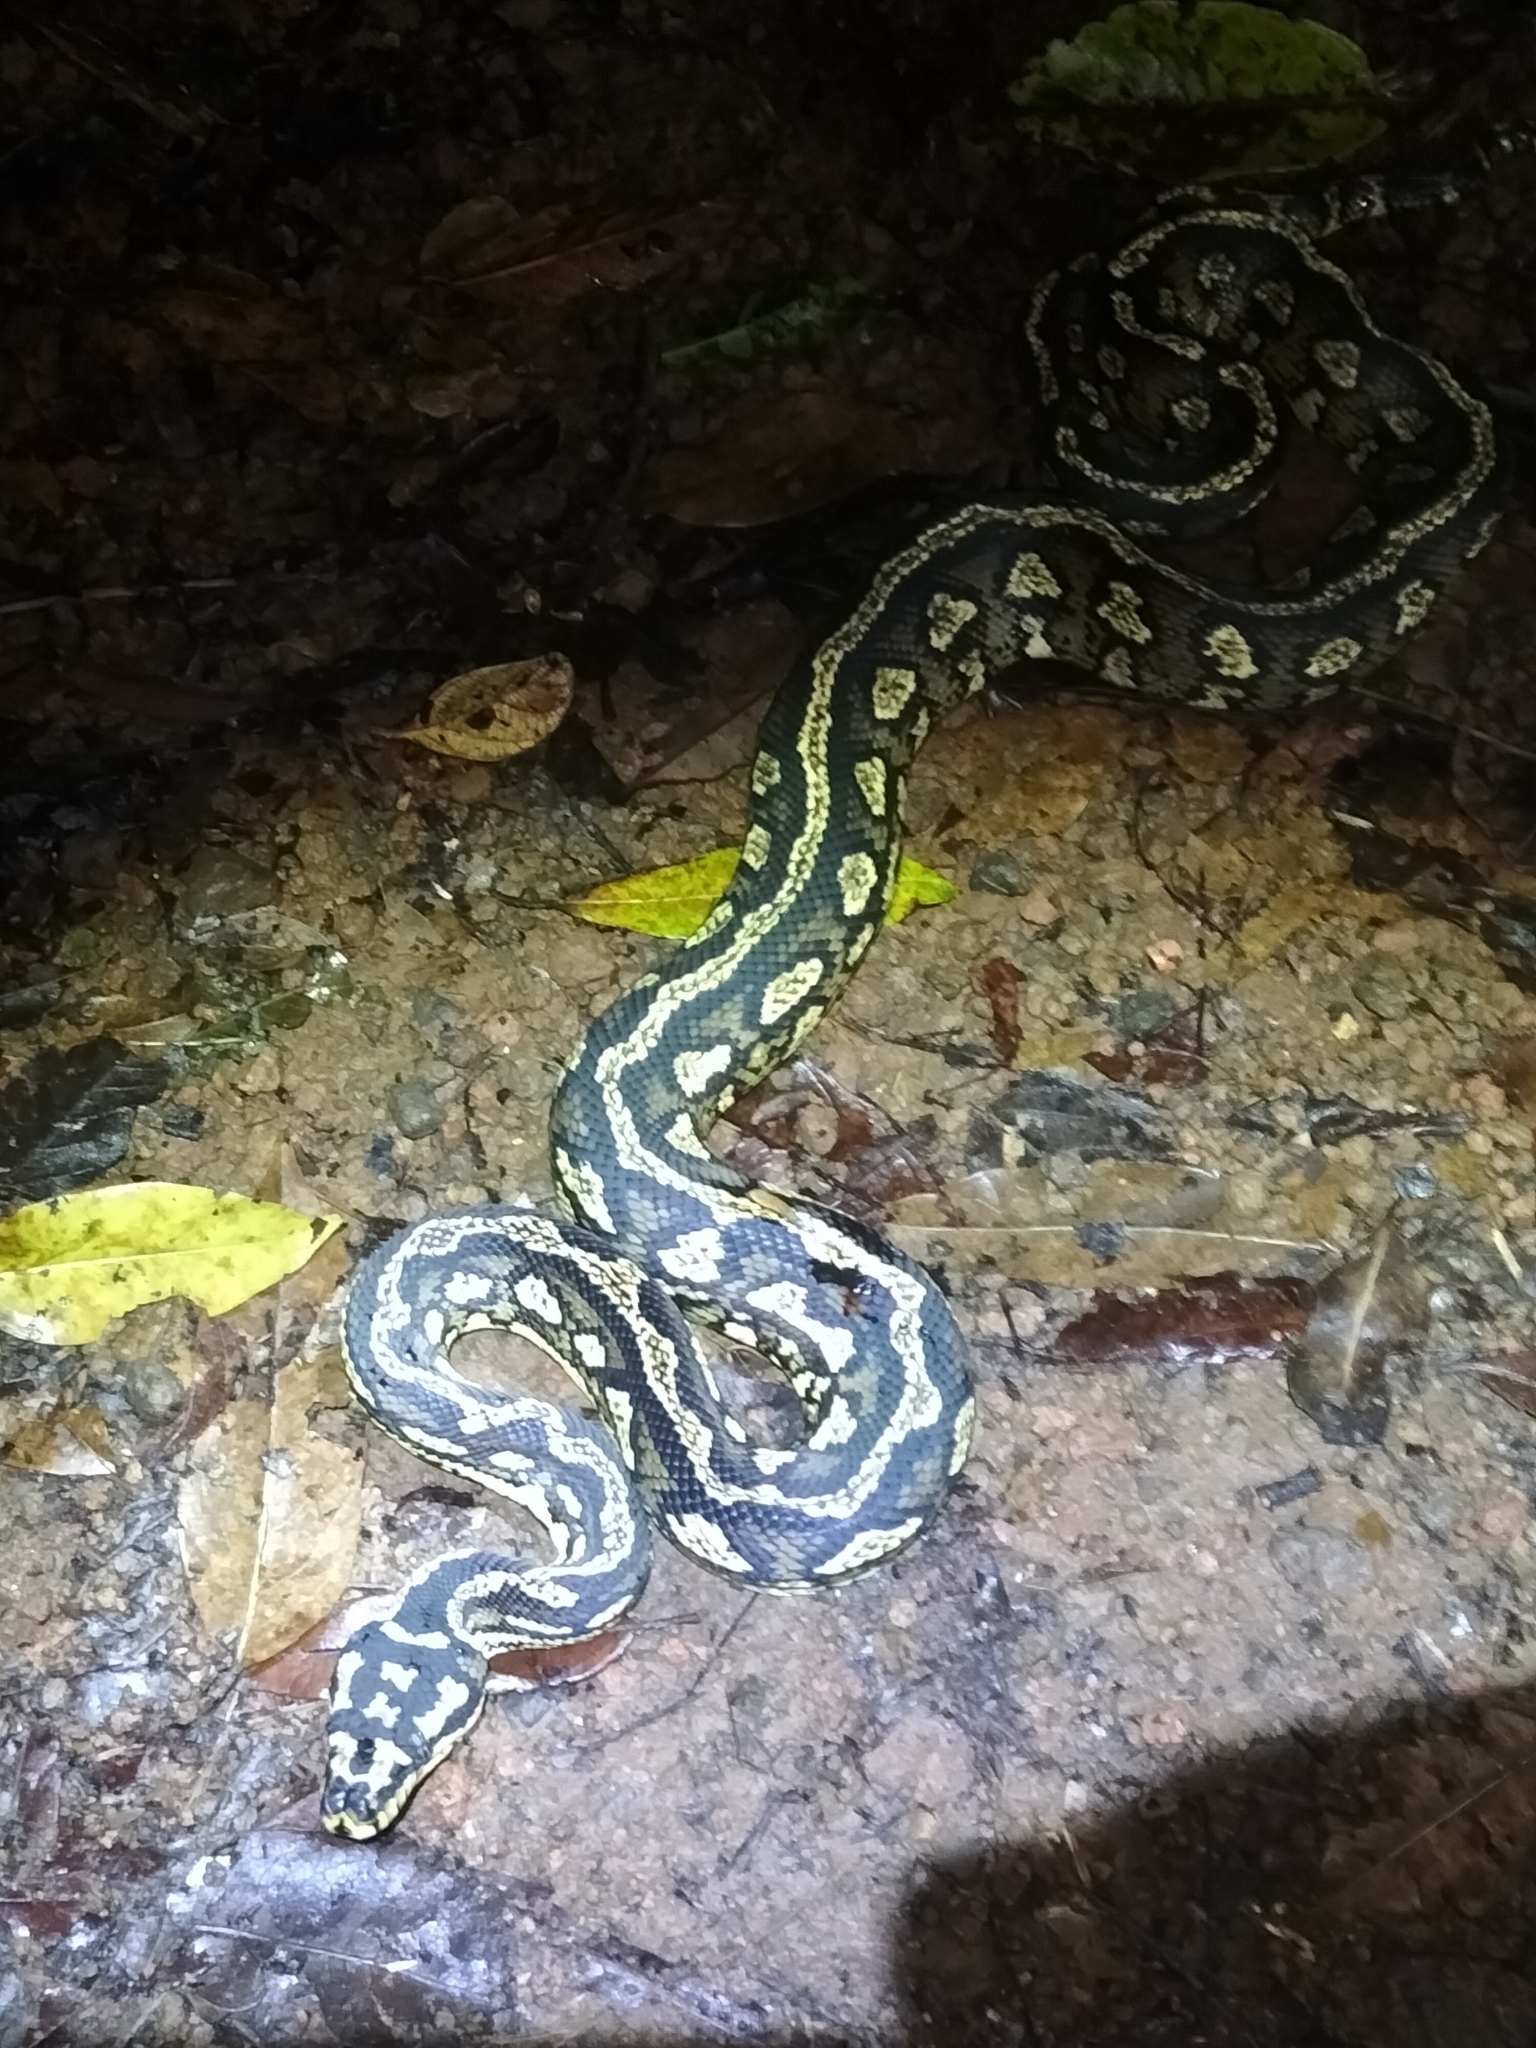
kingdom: Animalia
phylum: Chordata
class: Squamata
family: Pythonidae
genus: Morelia
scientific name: Morelia spilota
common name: Carpet python
